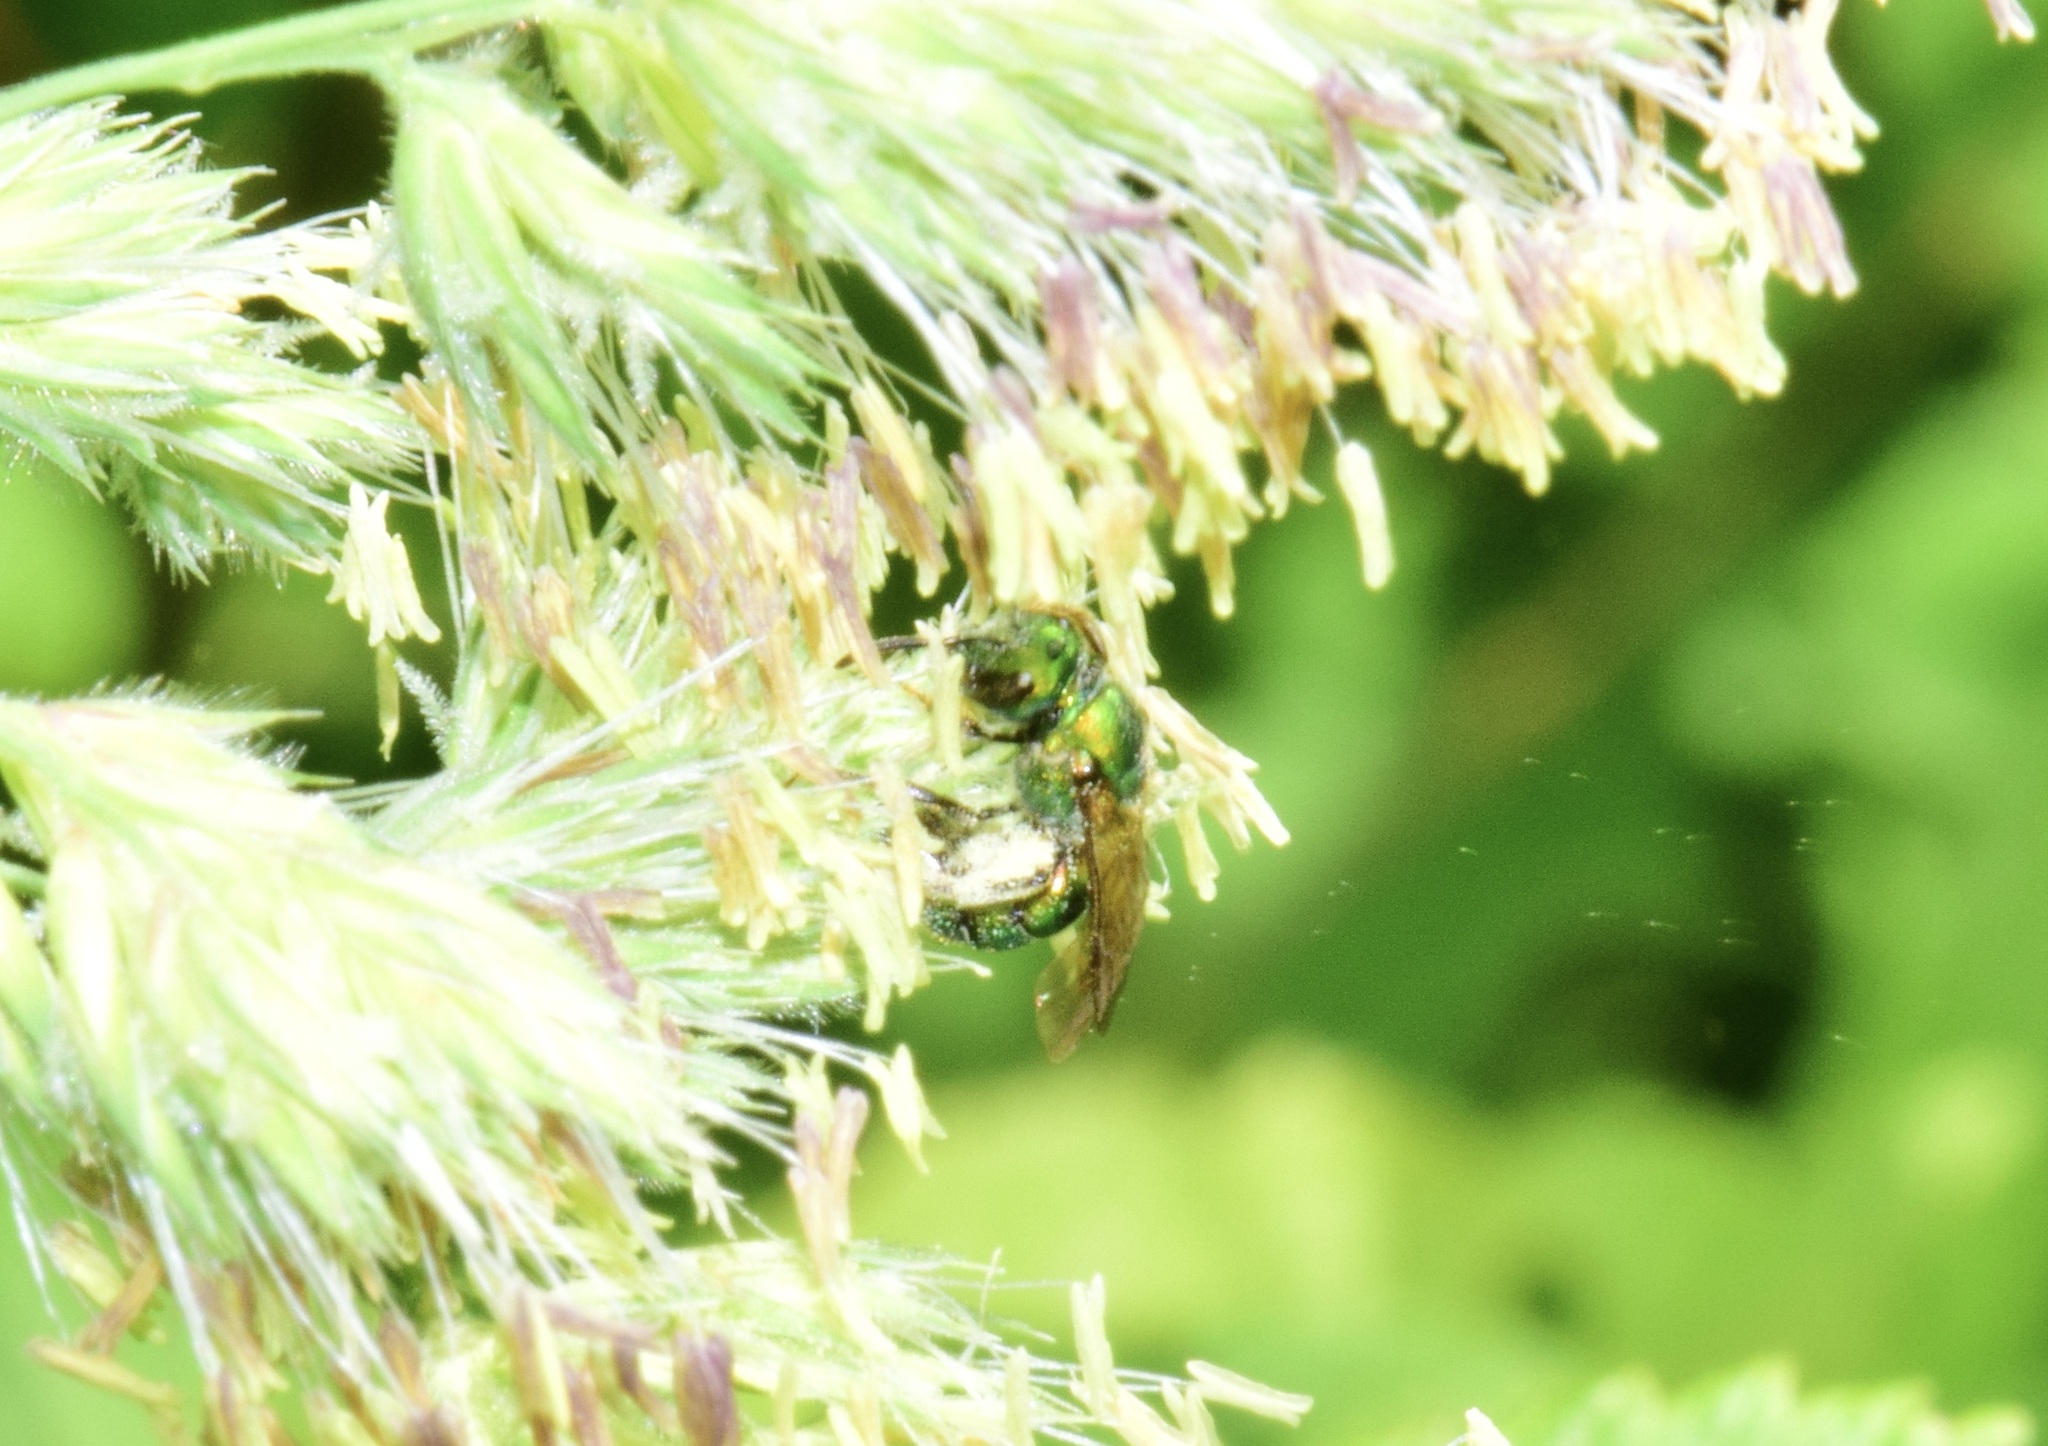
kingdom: Animalia
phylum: Arthropoda
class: Insecta
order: Hymenoptera
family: Halictidae
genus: Augochlora
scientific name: Augochlora pura
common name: Pure green sweat bee
